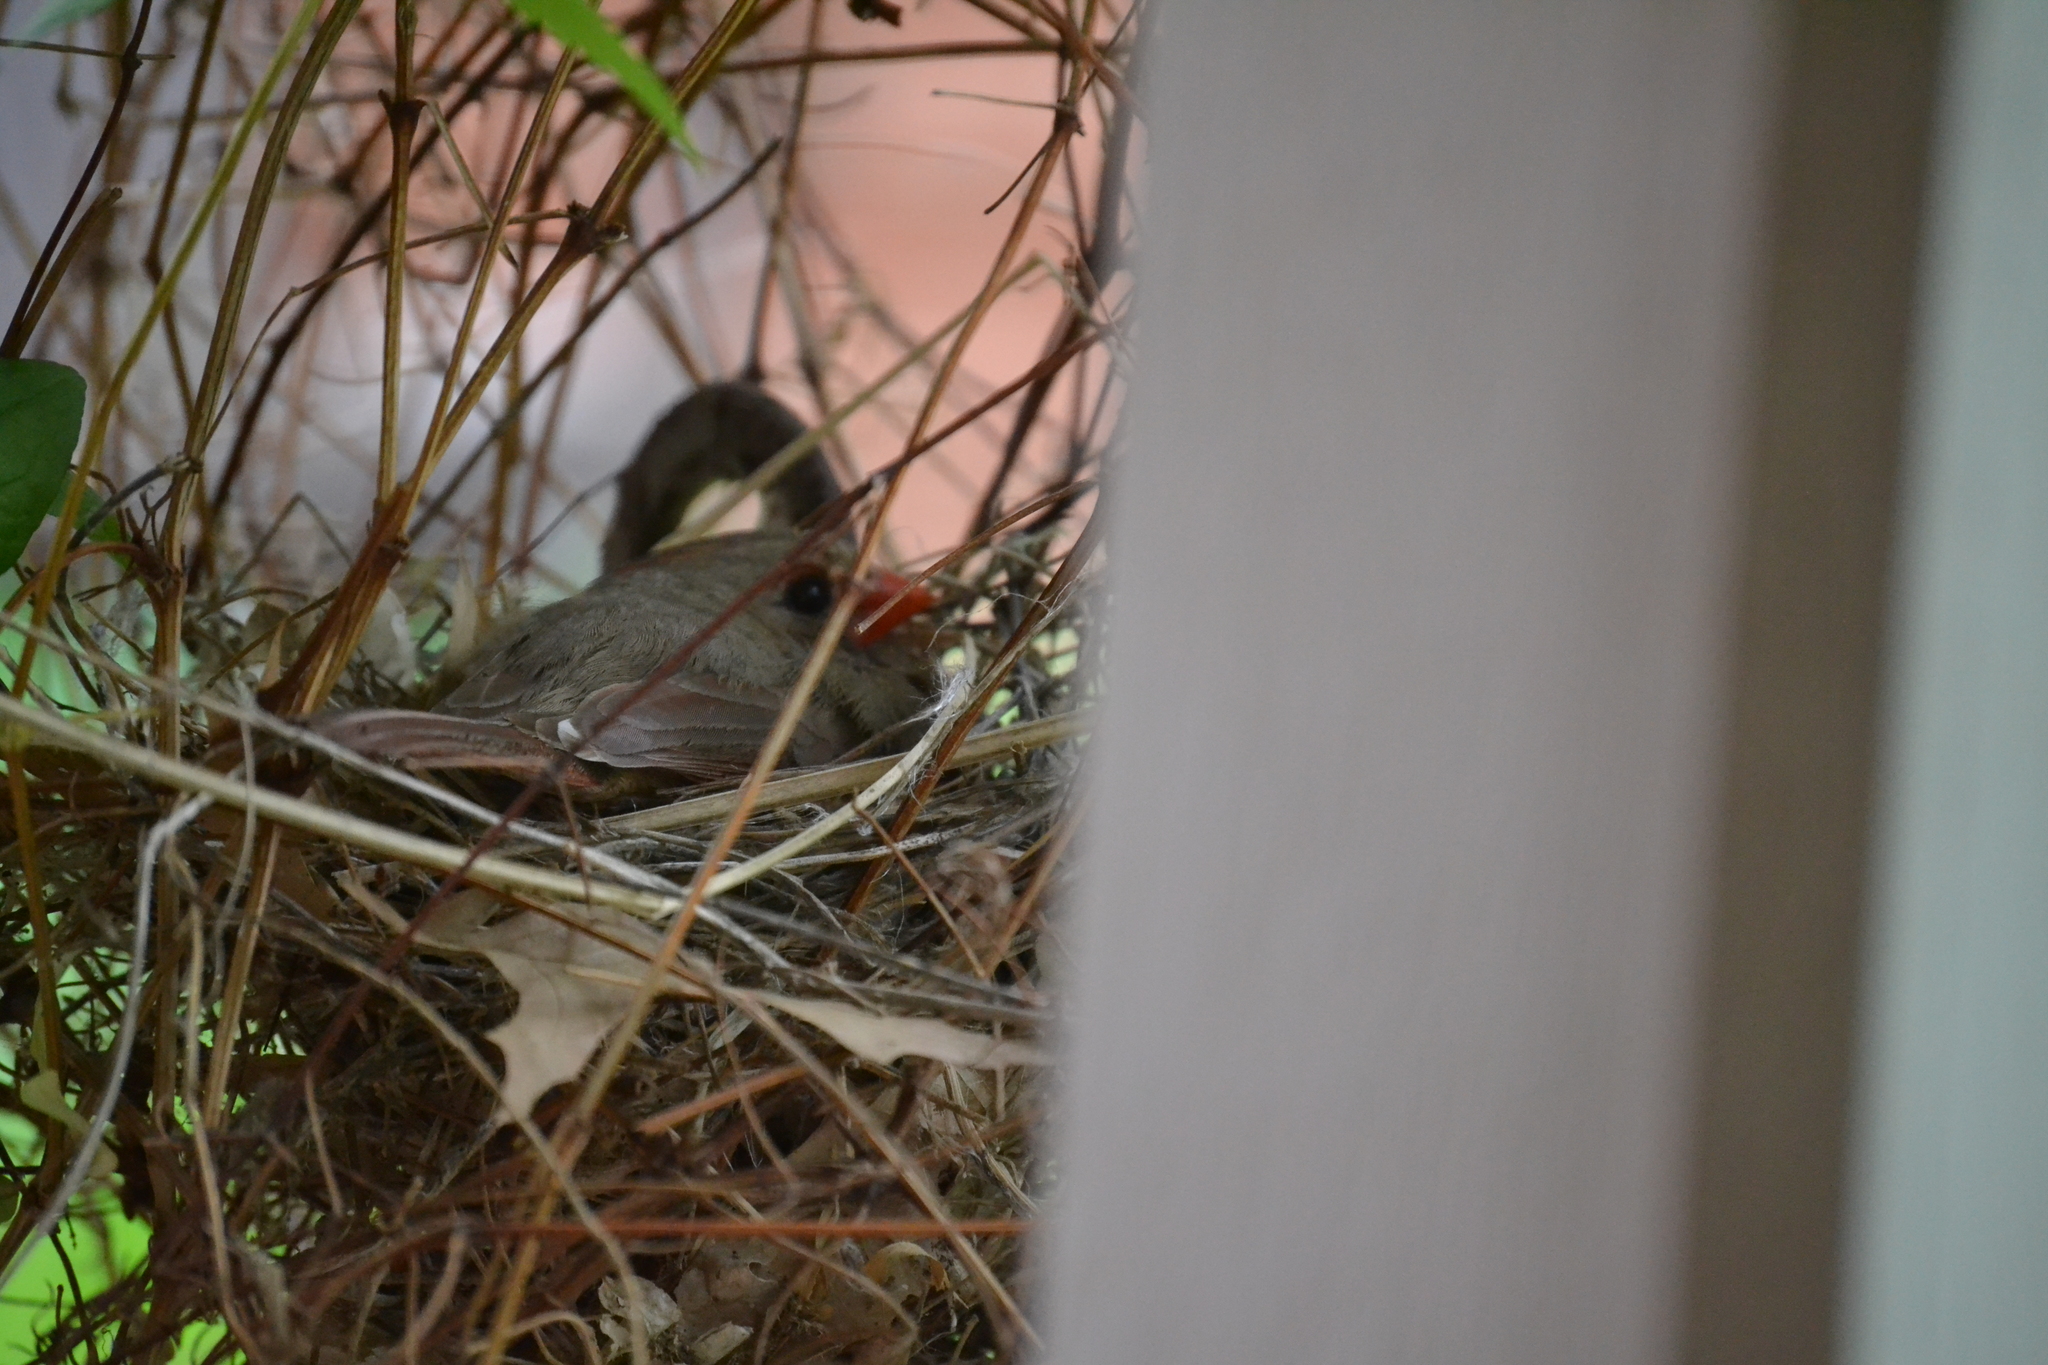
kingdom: Animalia
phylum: Chordata
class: Aves
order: Passeriformes
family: Cardinalidae
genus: Cardinalis
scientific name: Cardinalis cardinalis
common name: Northern cardinal
